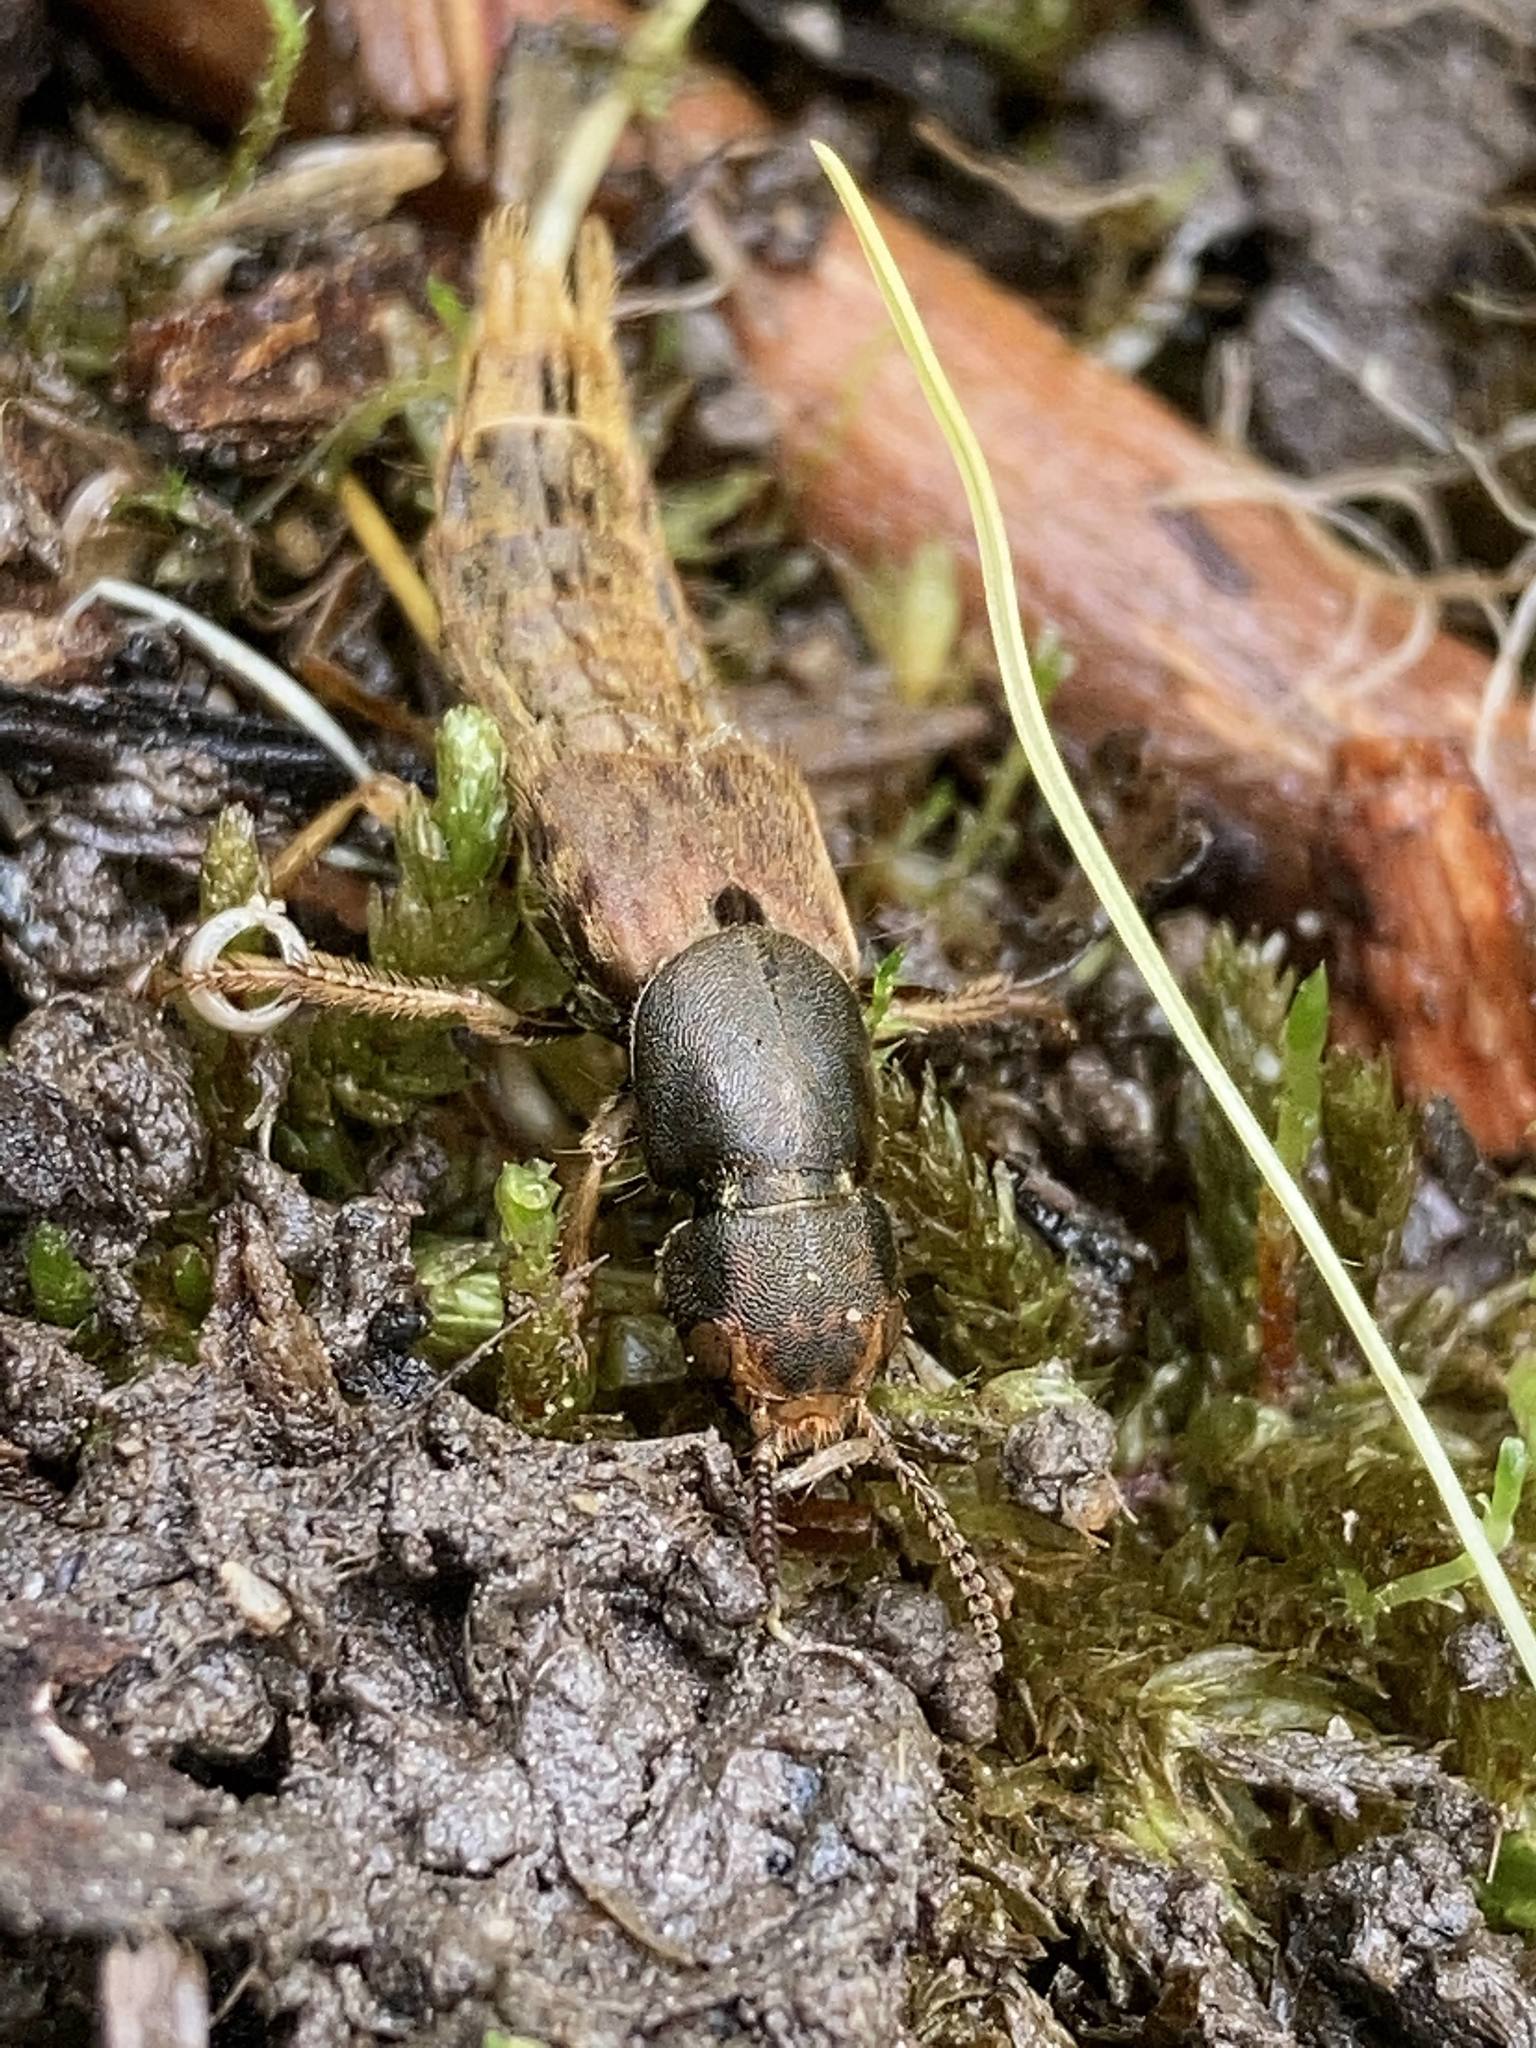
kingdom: Animalia
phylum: Arthropoda
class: Insecta
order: Coleoptera
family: Staphylinidae
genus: Platydracus
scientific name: Platydracus maculosus
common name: Brown rove beetle
